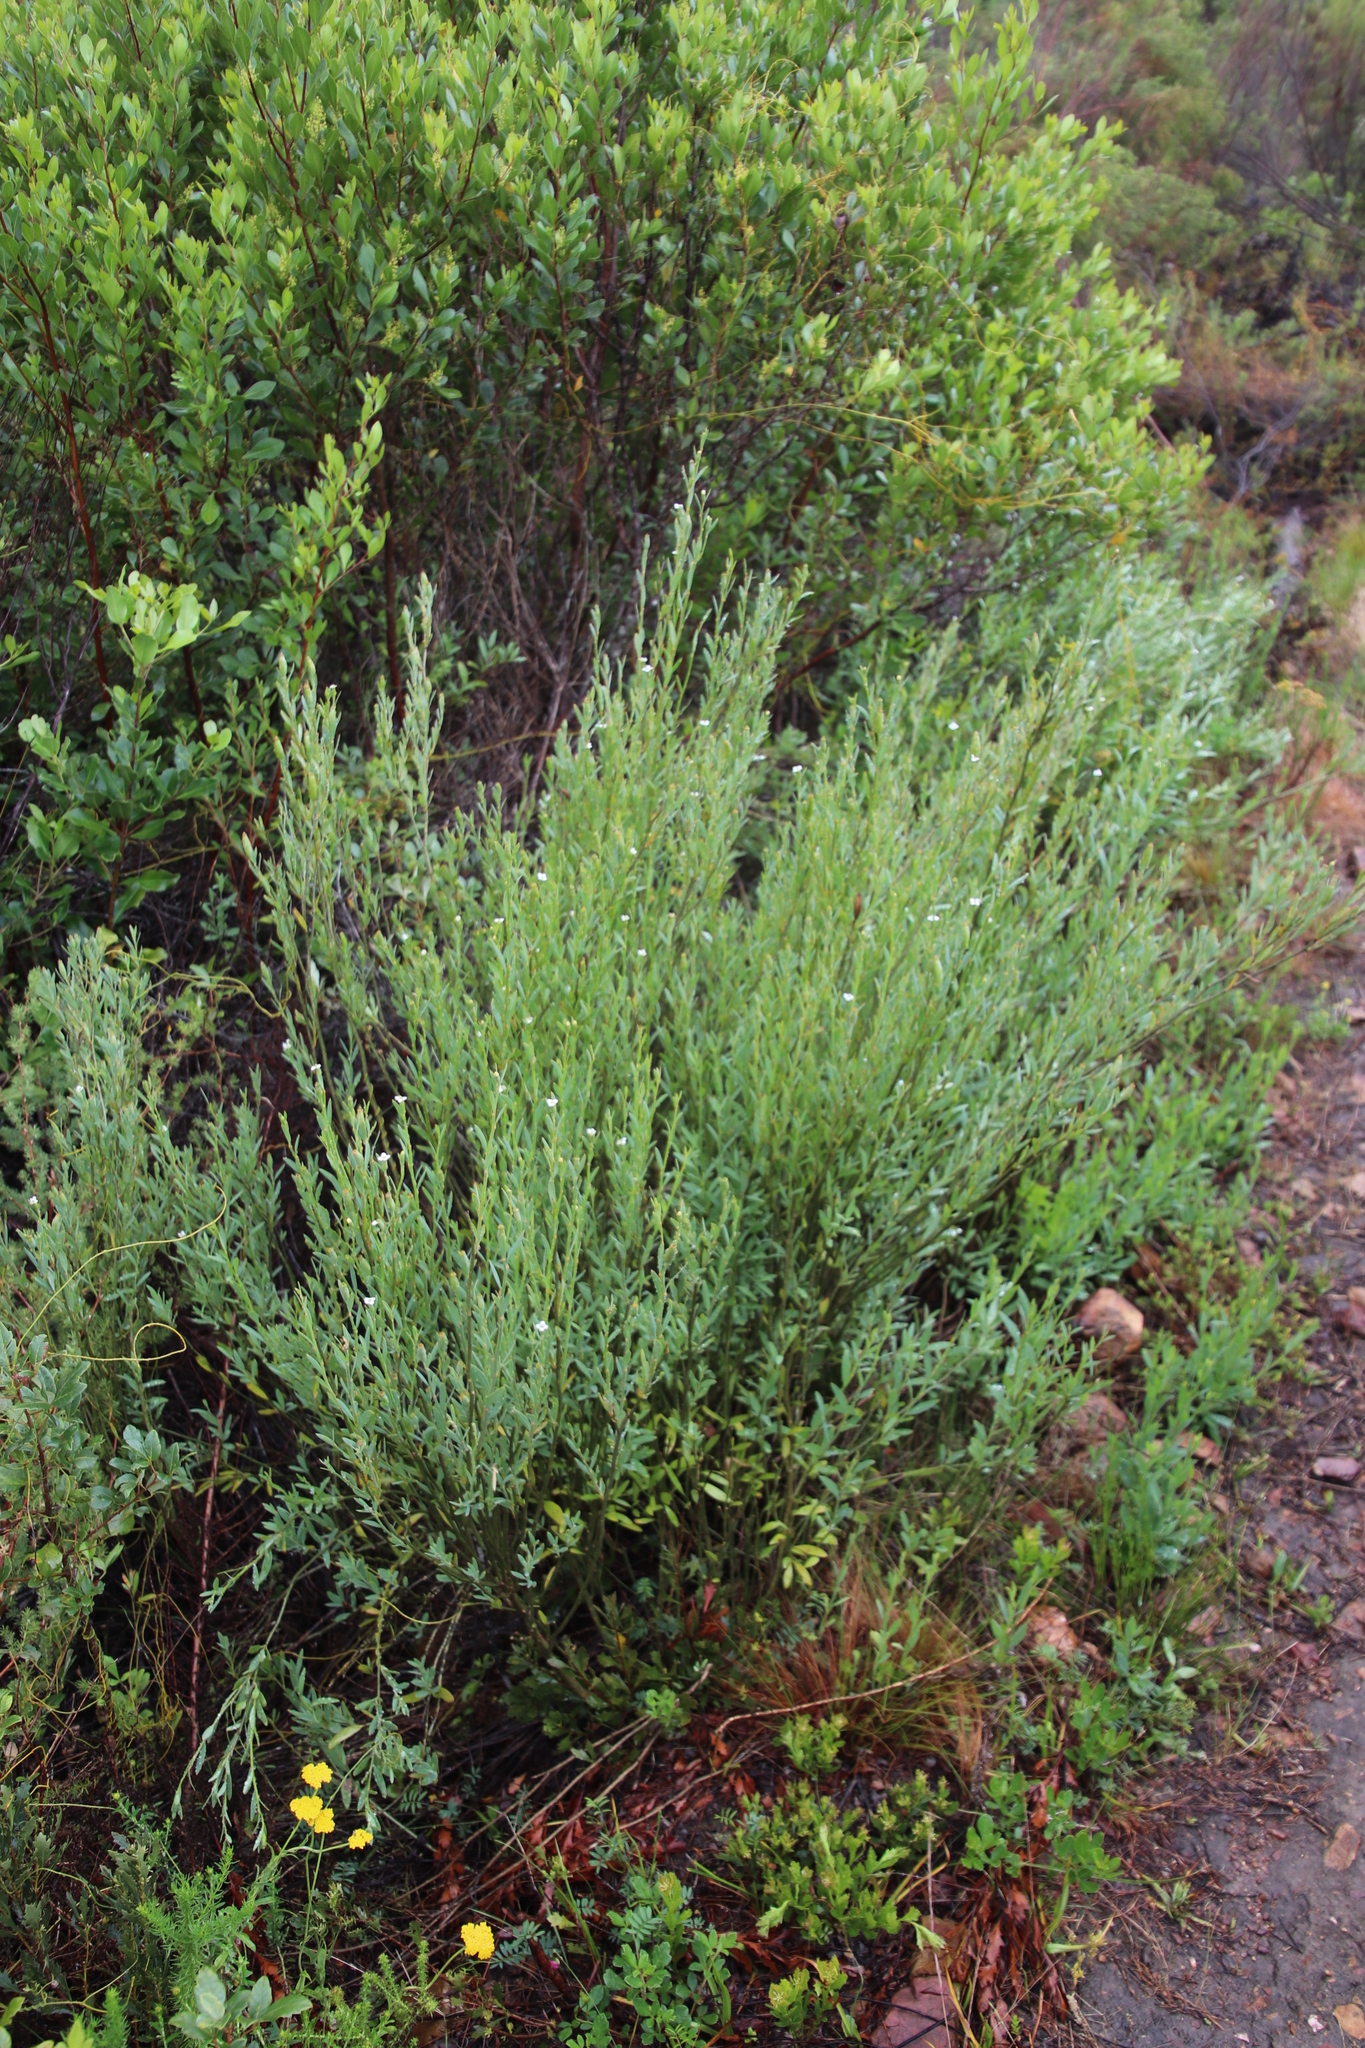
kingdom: Plantae
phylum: Tracheophyta
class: Magnoliopsida
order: Solanales
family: Montiniaceae
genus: Montinia
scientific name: Montinia caryophyllacea
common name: Wild clove-bush
